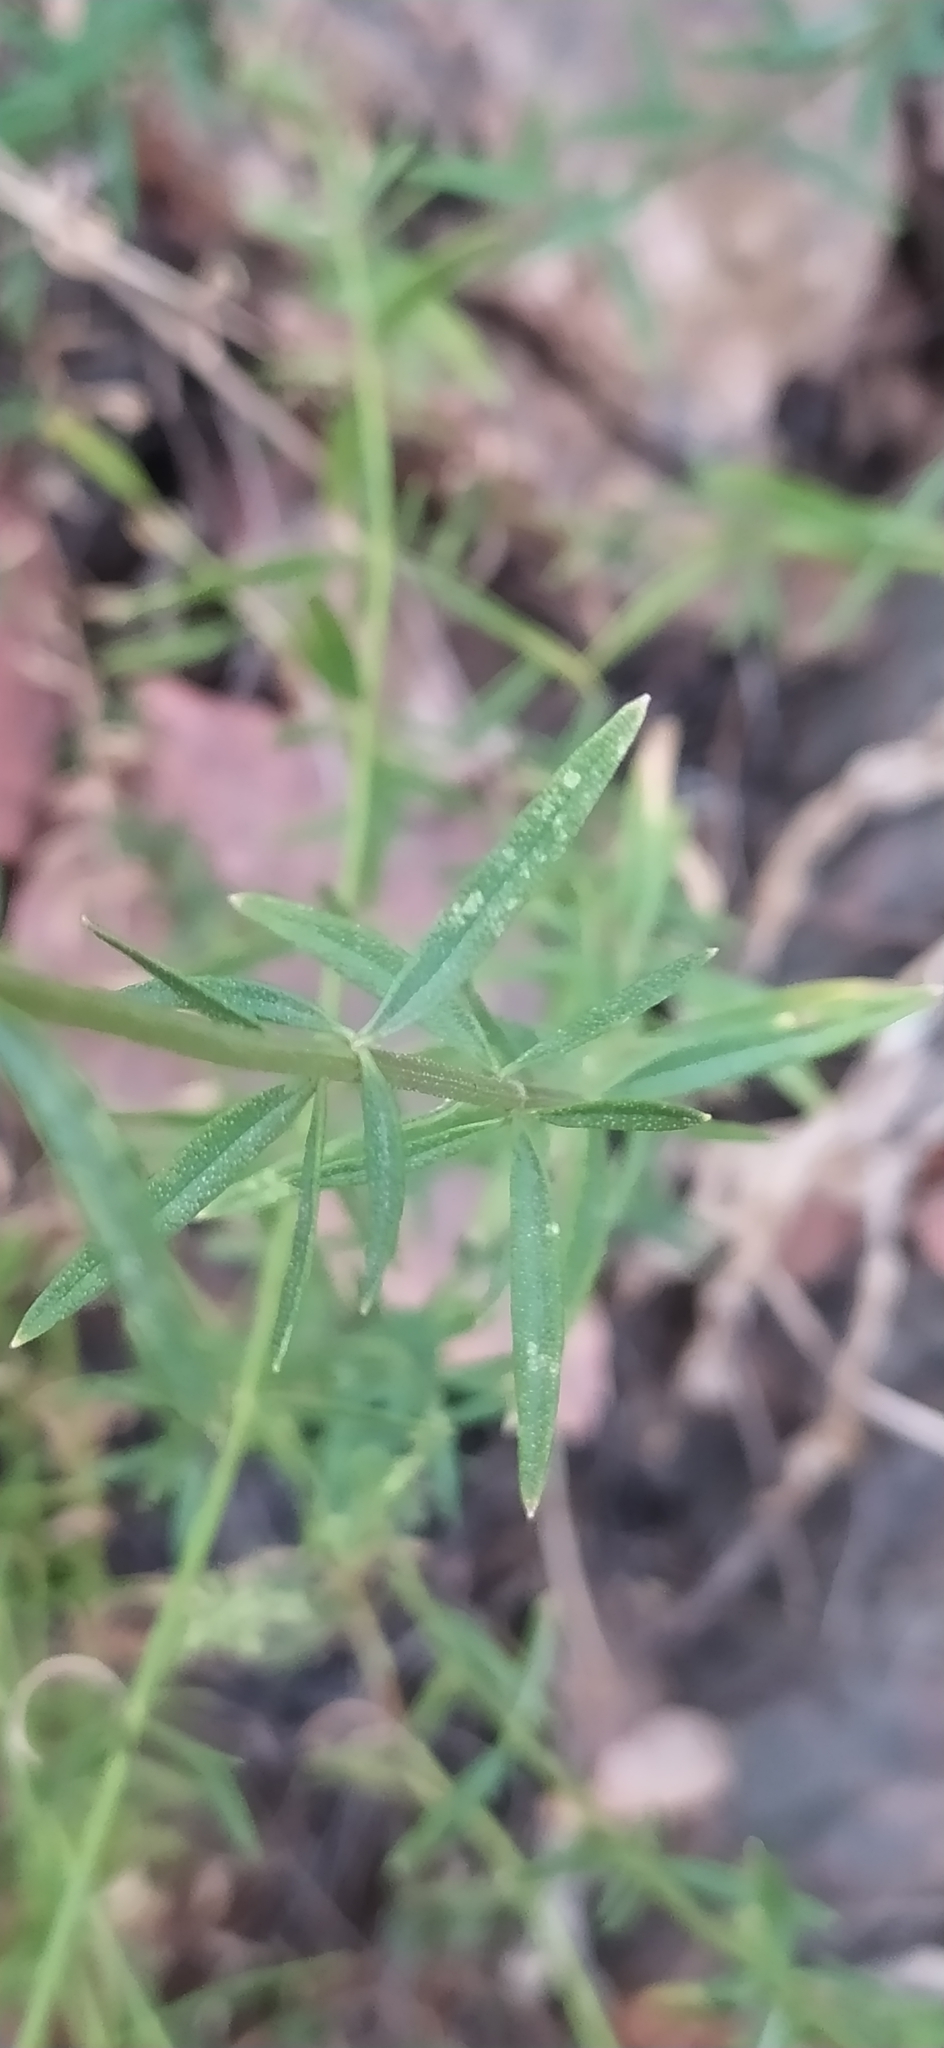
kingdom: Plantae
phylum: Tracheophyta
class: Magnoliopsida
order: Lamiales
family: Lamiaceae
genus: Hyssopus
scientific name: Hyssopus seravschanicus
